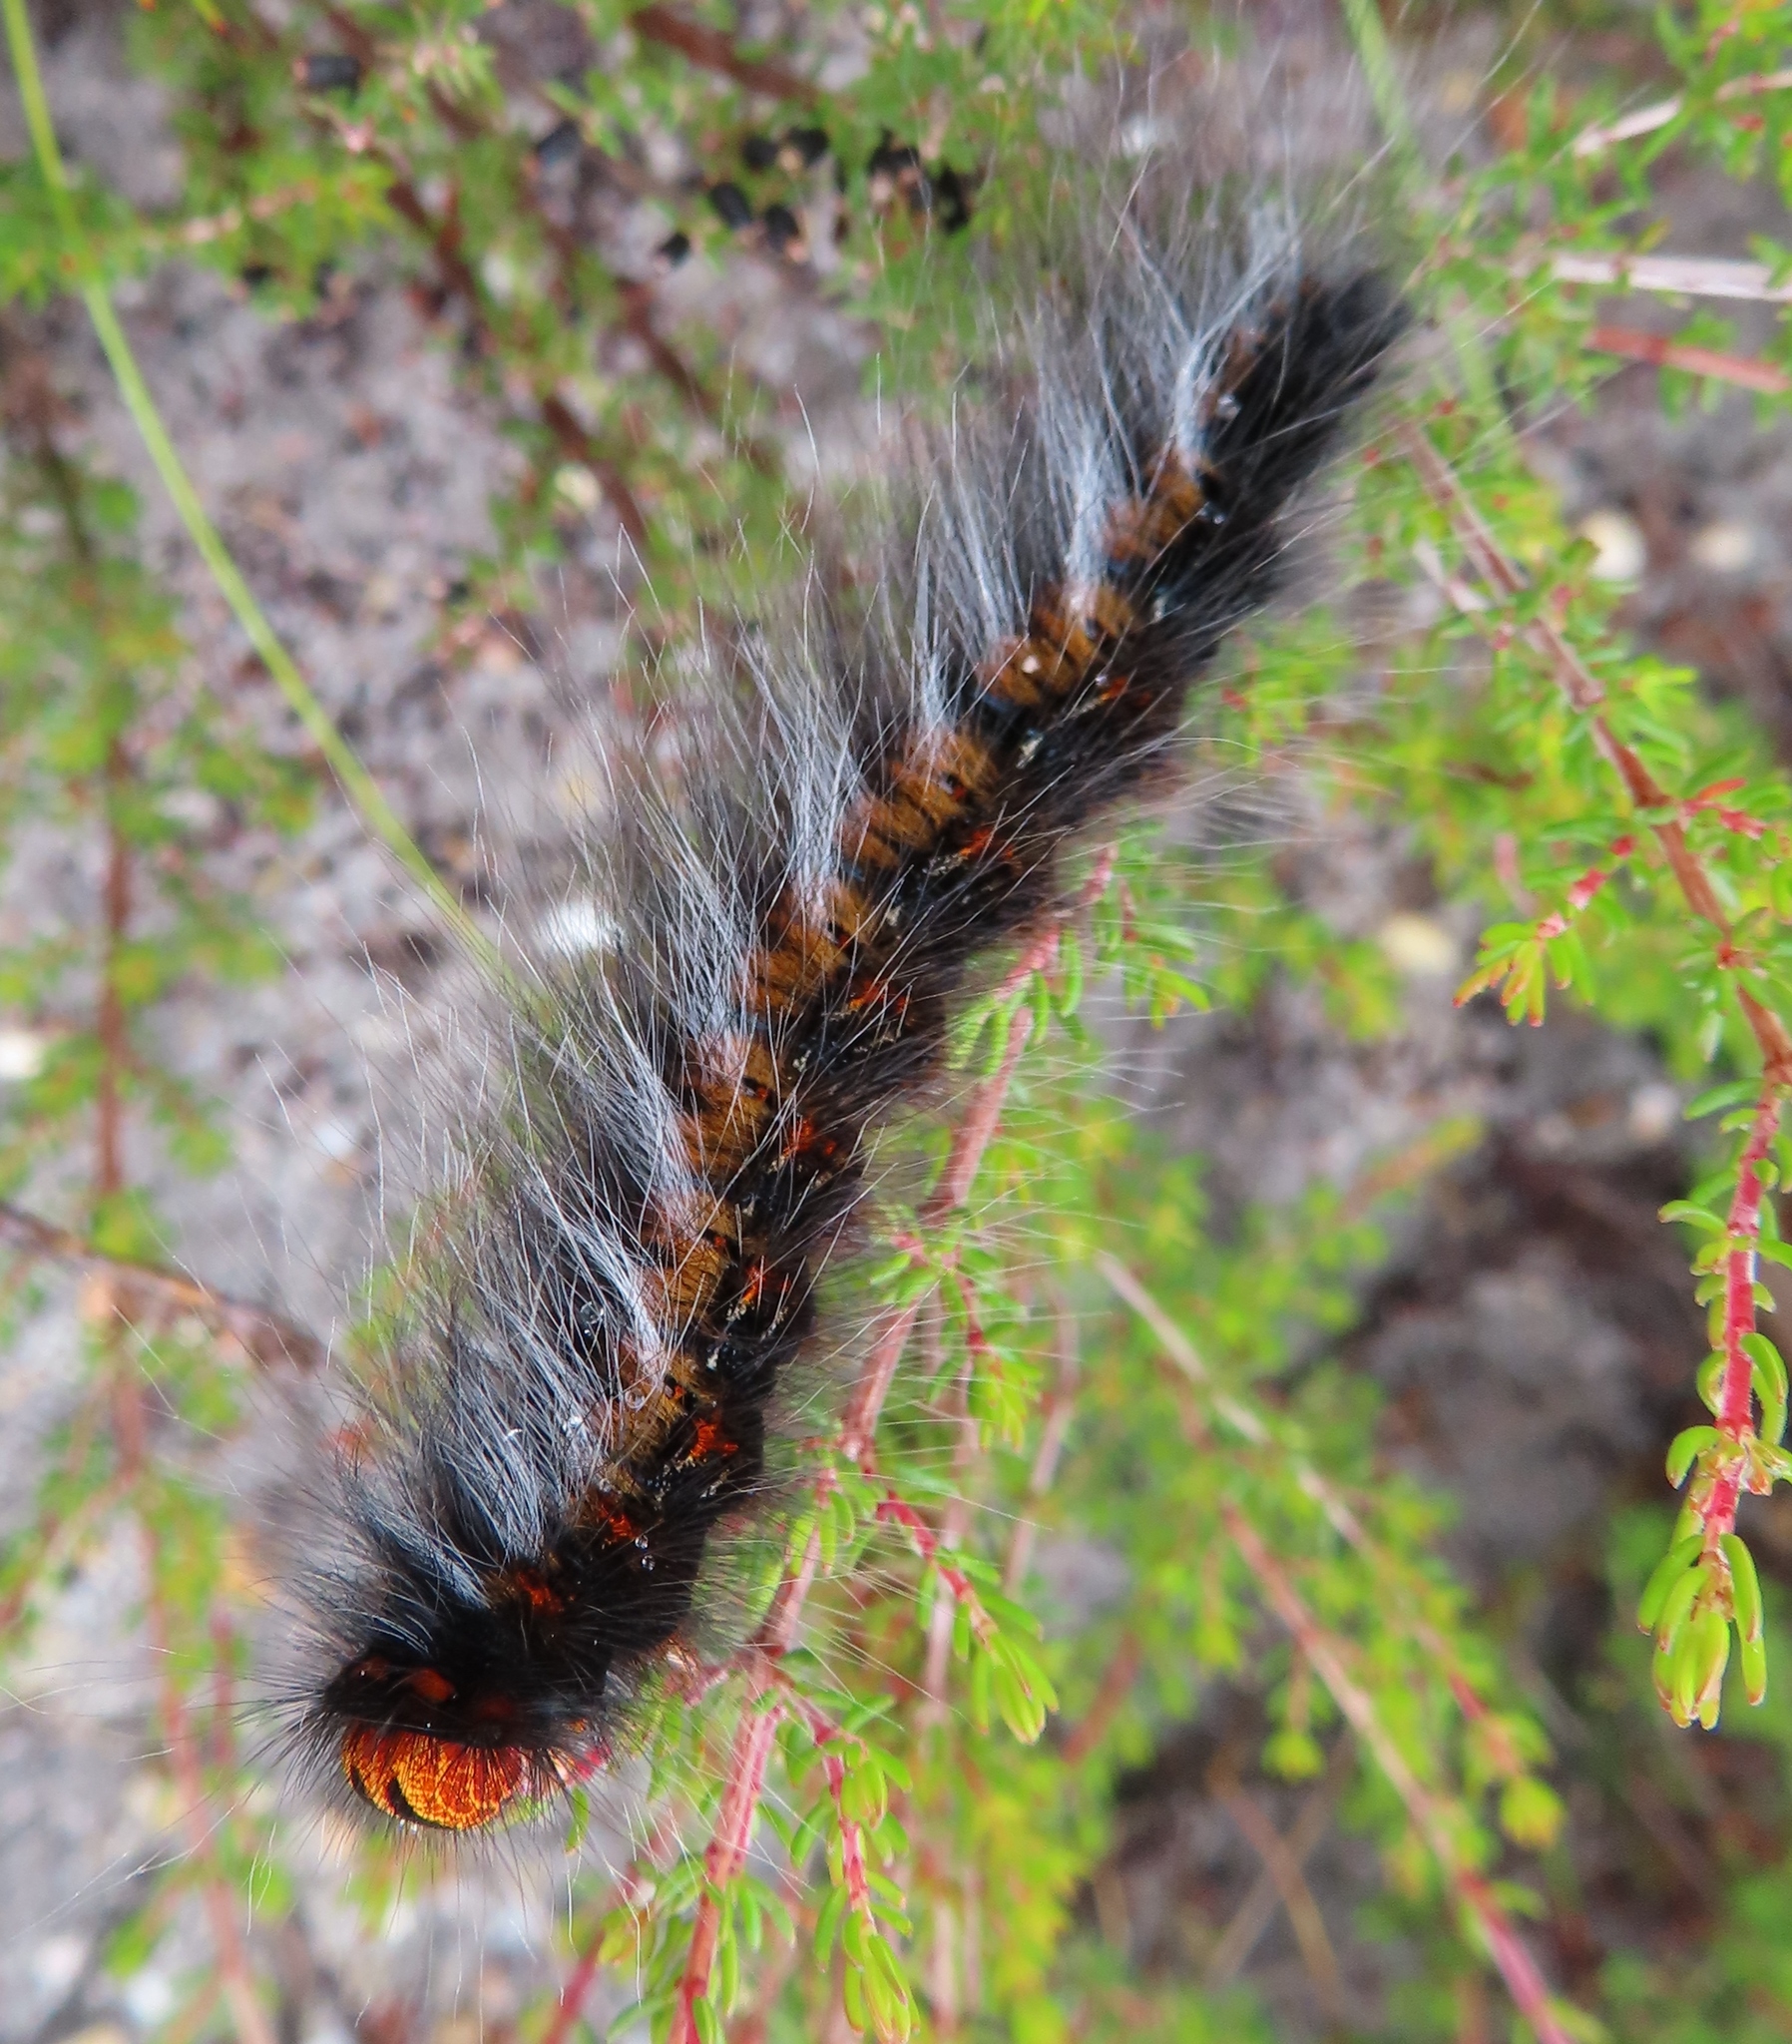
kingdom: Animalia
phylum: Arthropoda
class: Insecta
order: Lepidoptera
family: Lasiocampidae
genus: Mesocelis
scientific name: Mesocelis monticola
